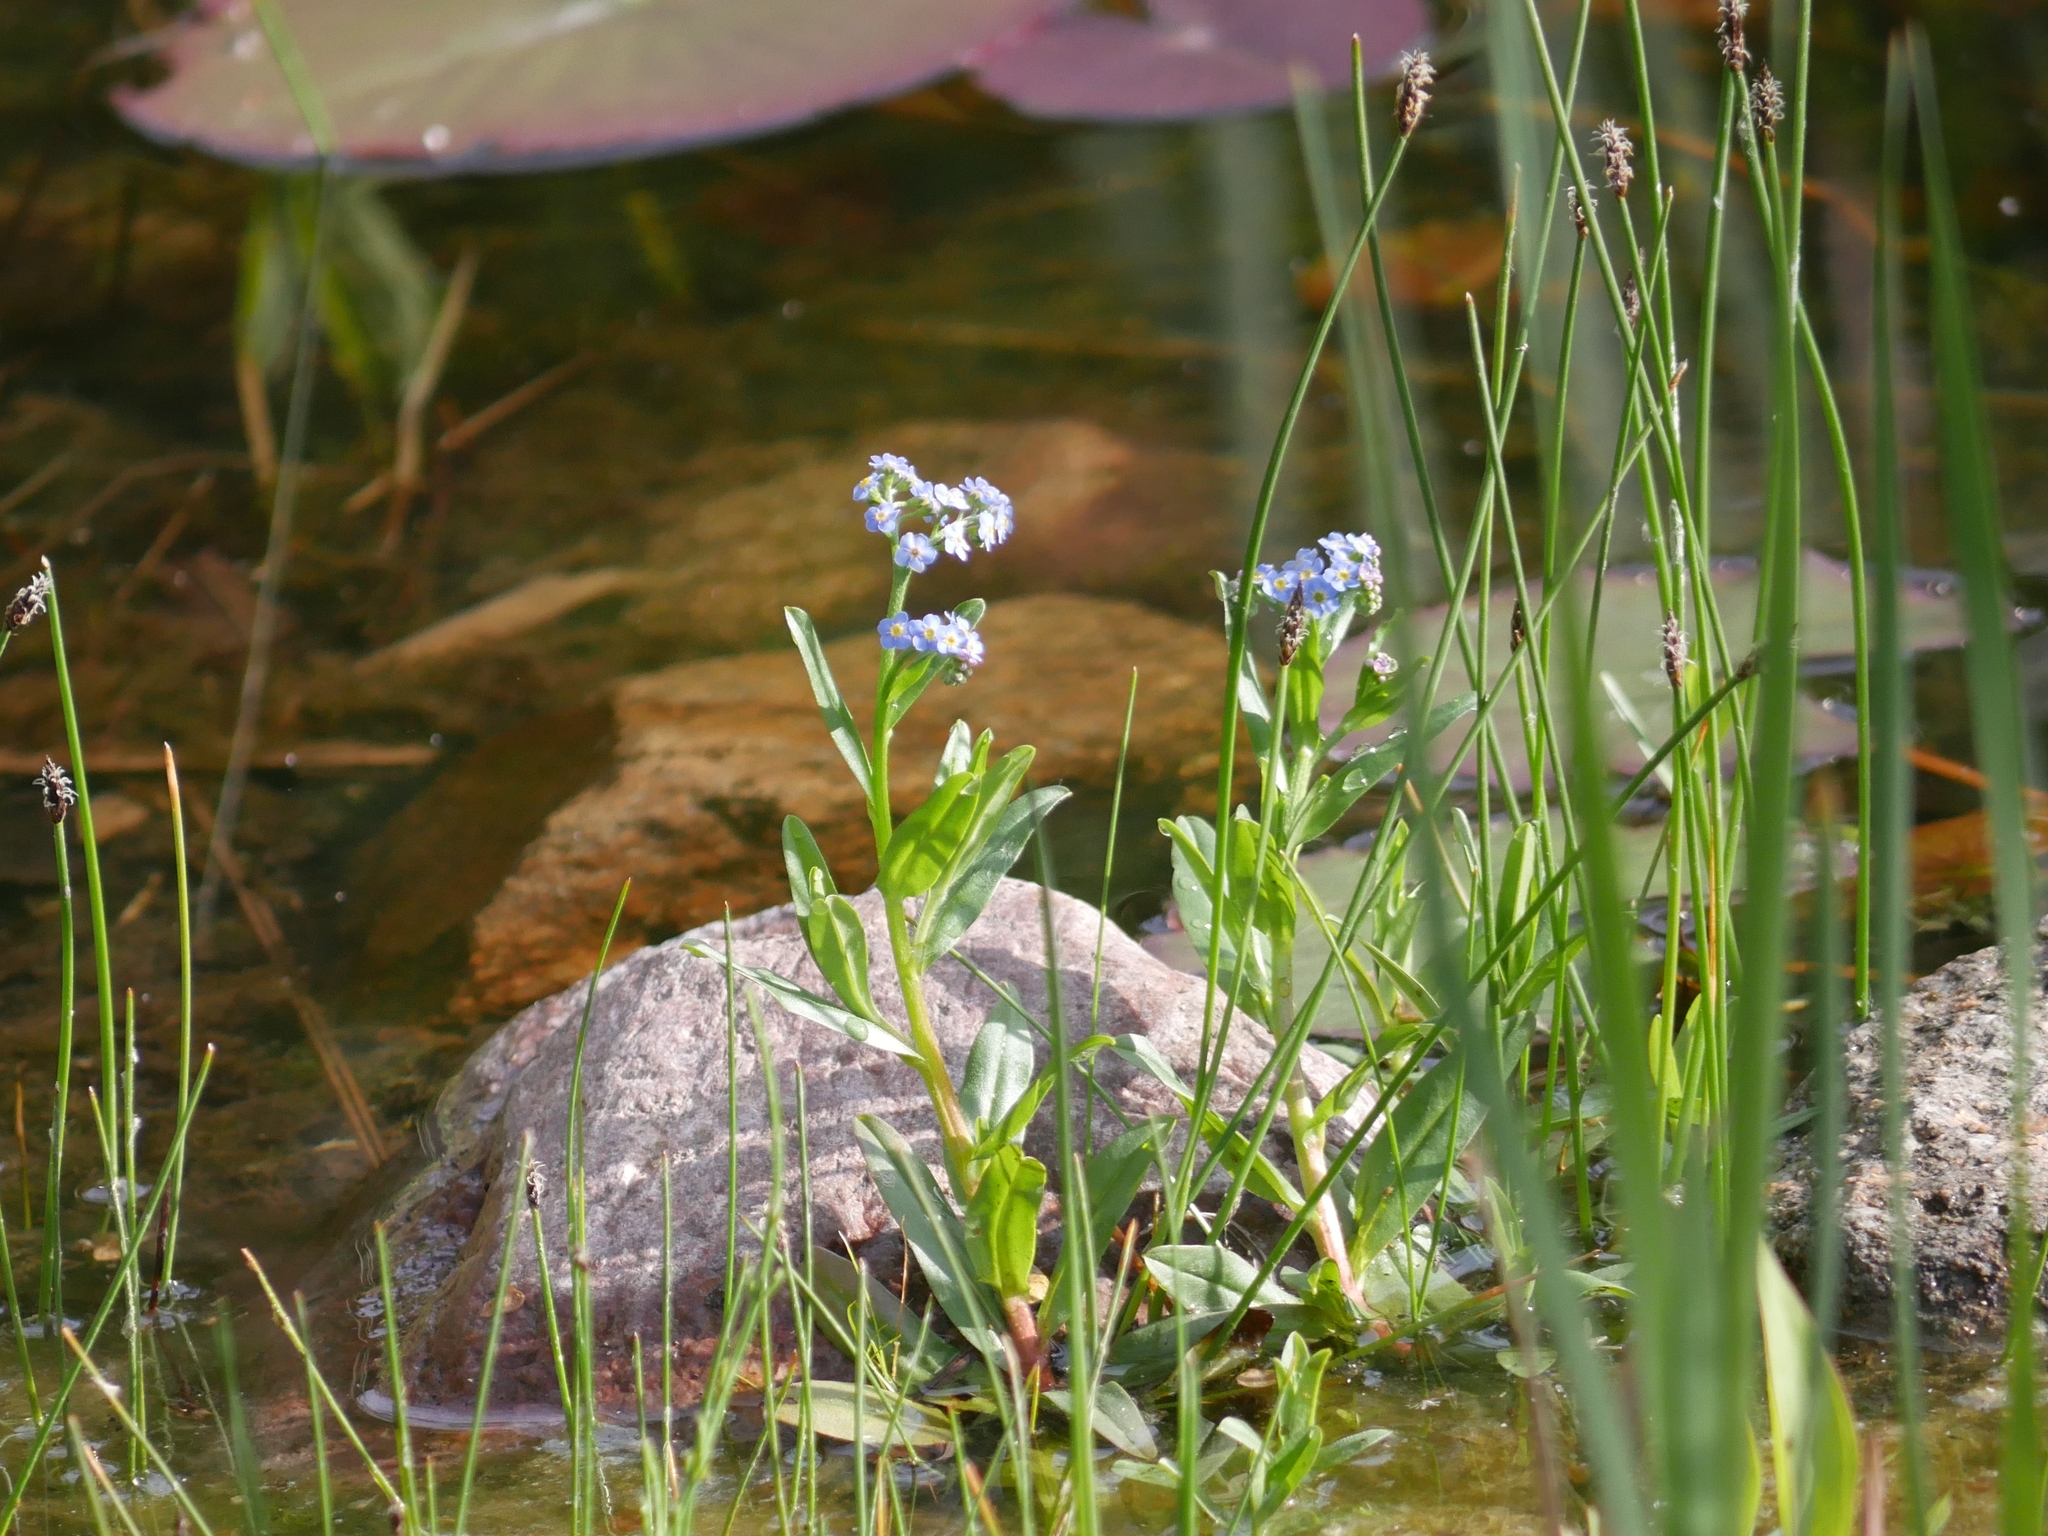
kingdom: Plantae
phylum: Tracheophyta
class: Magnoliopsida
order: Boraginales
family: Boraginaceae
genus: Myosotis
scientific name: Myosotis scorpioides
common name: Water forget-me-not
